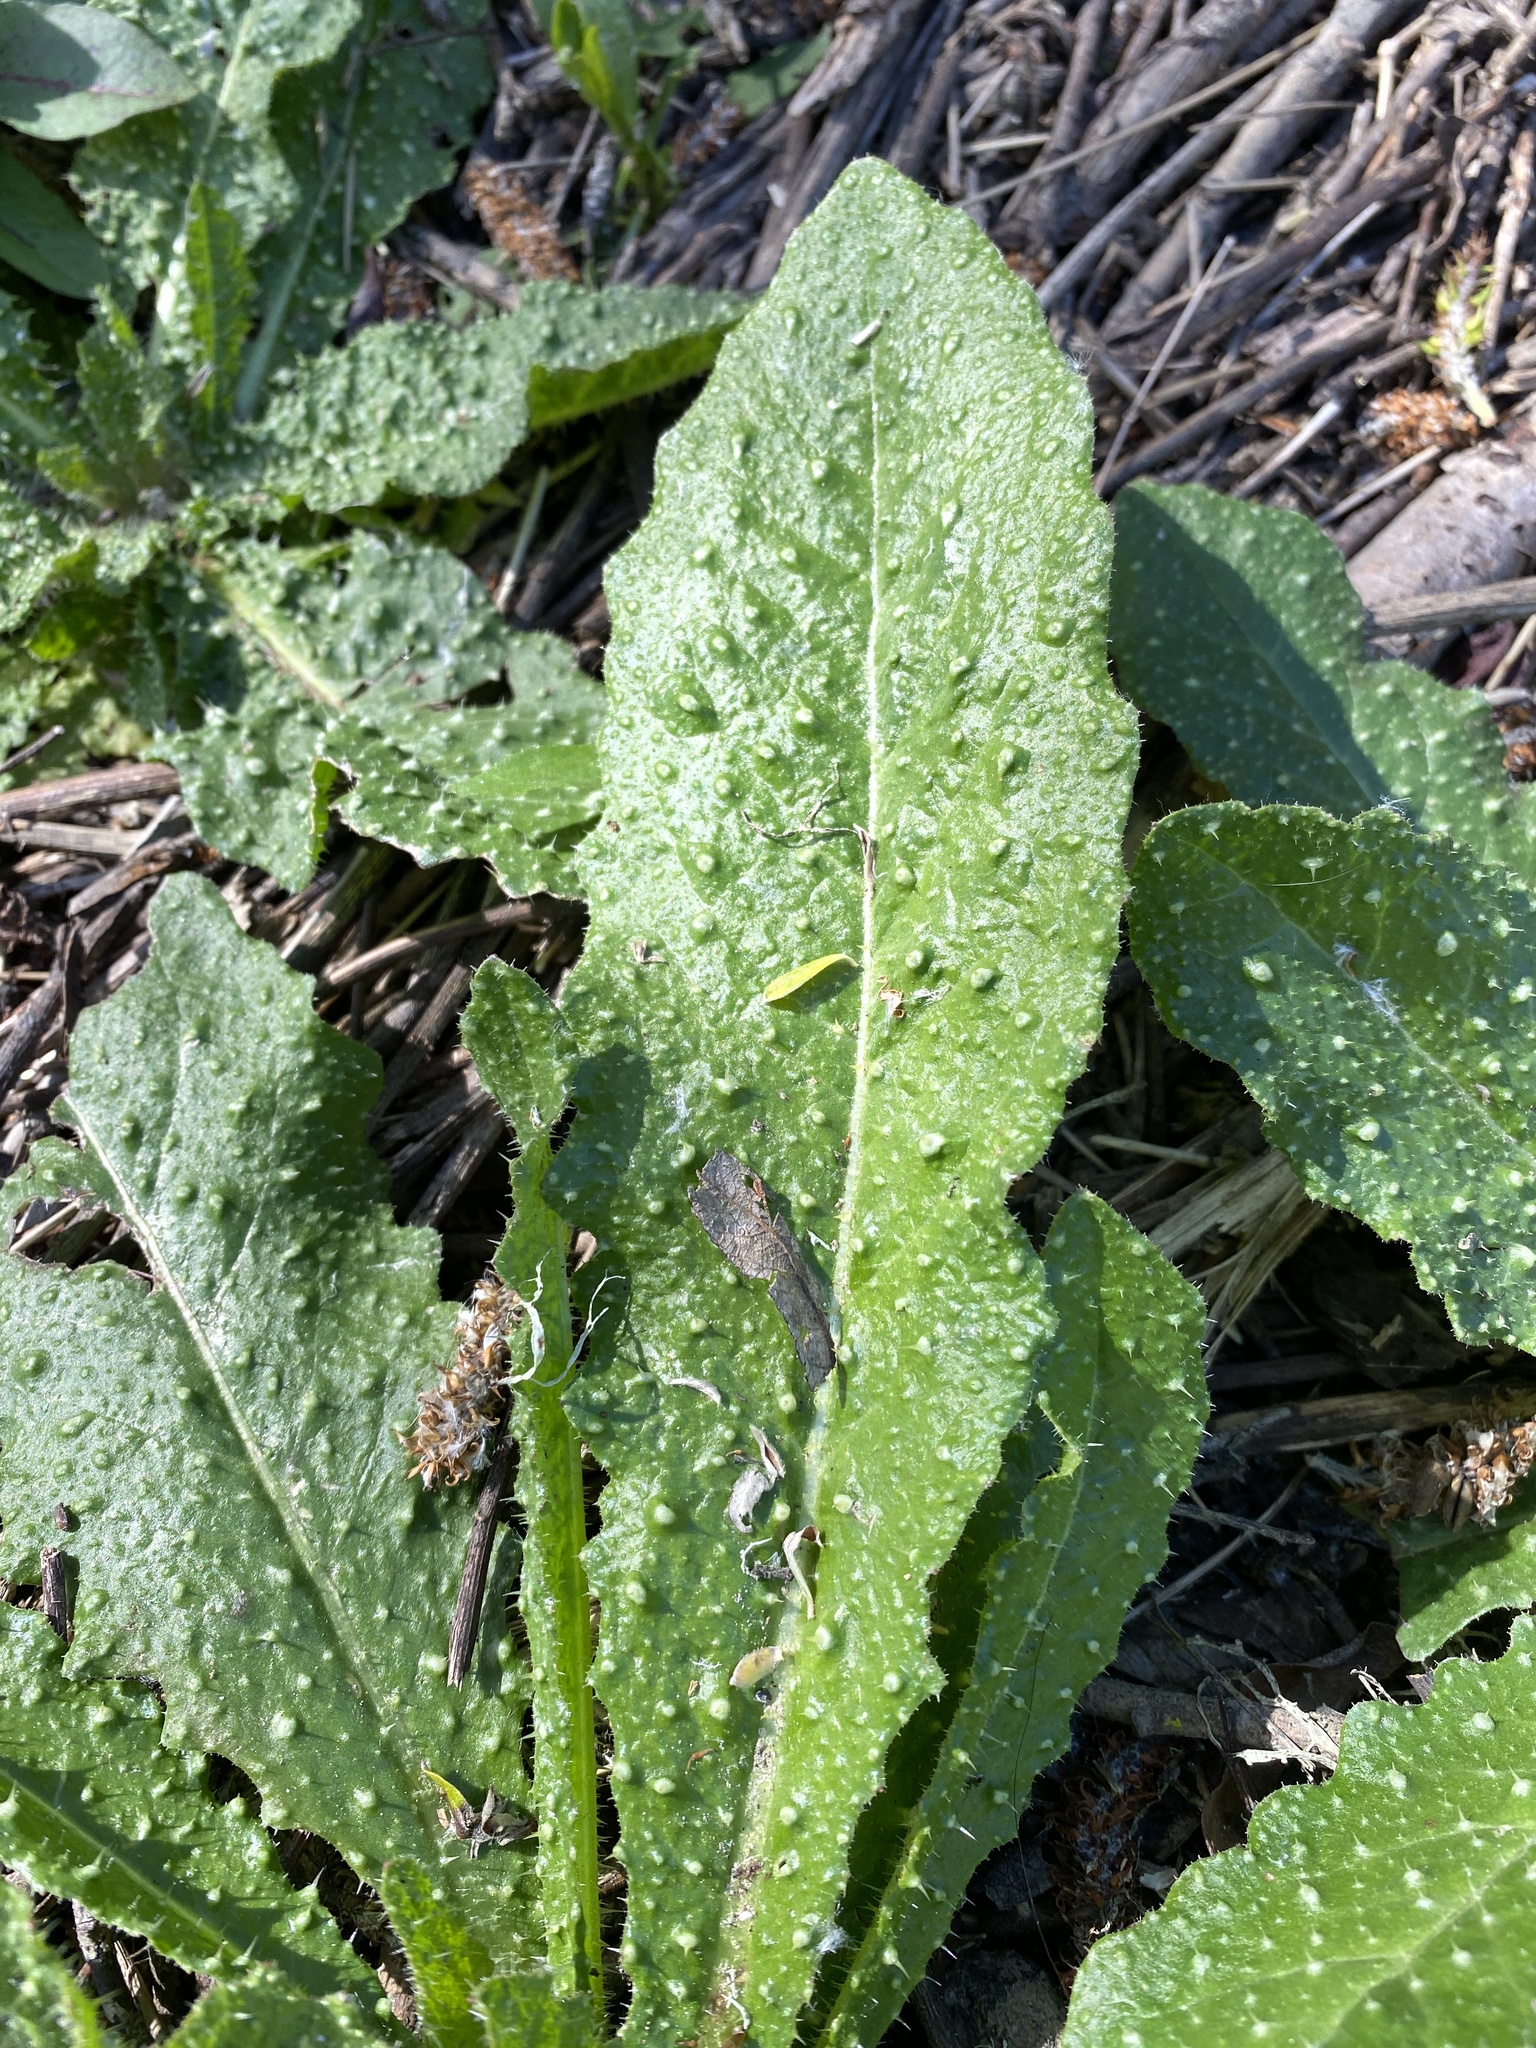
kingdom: Plantae
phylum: Tracheophyta
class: Magnoliopsida
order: Asterales
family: Asteraceae
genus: Helminthotheca
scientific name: Helminthotheca echioides
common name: Ox-tongue
